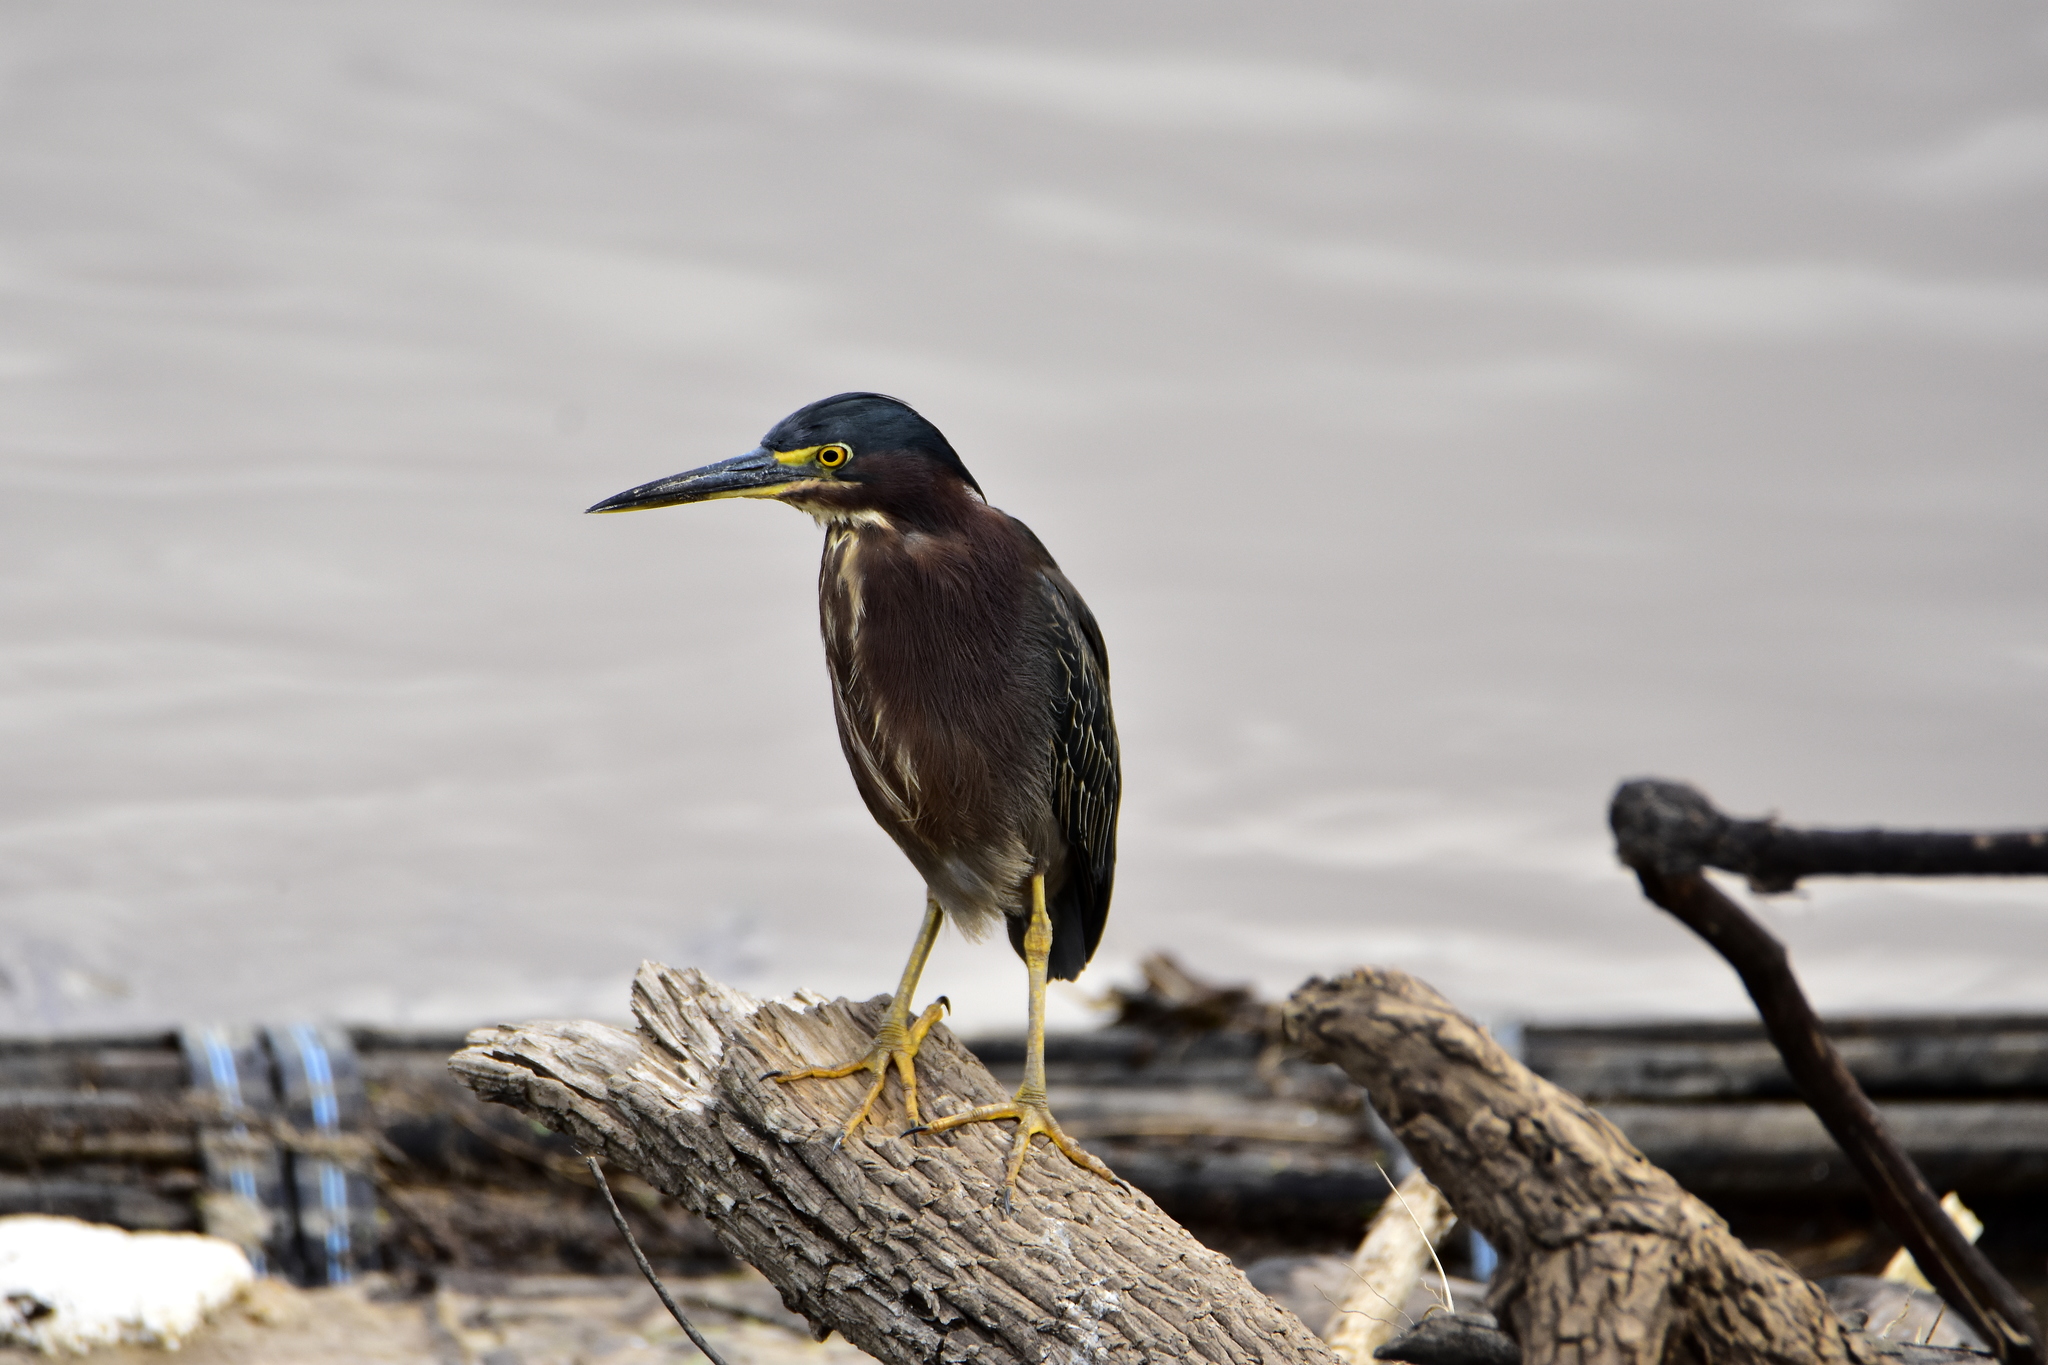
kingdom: Animalia
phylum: Chordata
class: Aves
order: Pelecaniformes
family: Ardeidae
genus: Butorides
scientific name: Butorides virescens
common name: Green heron
